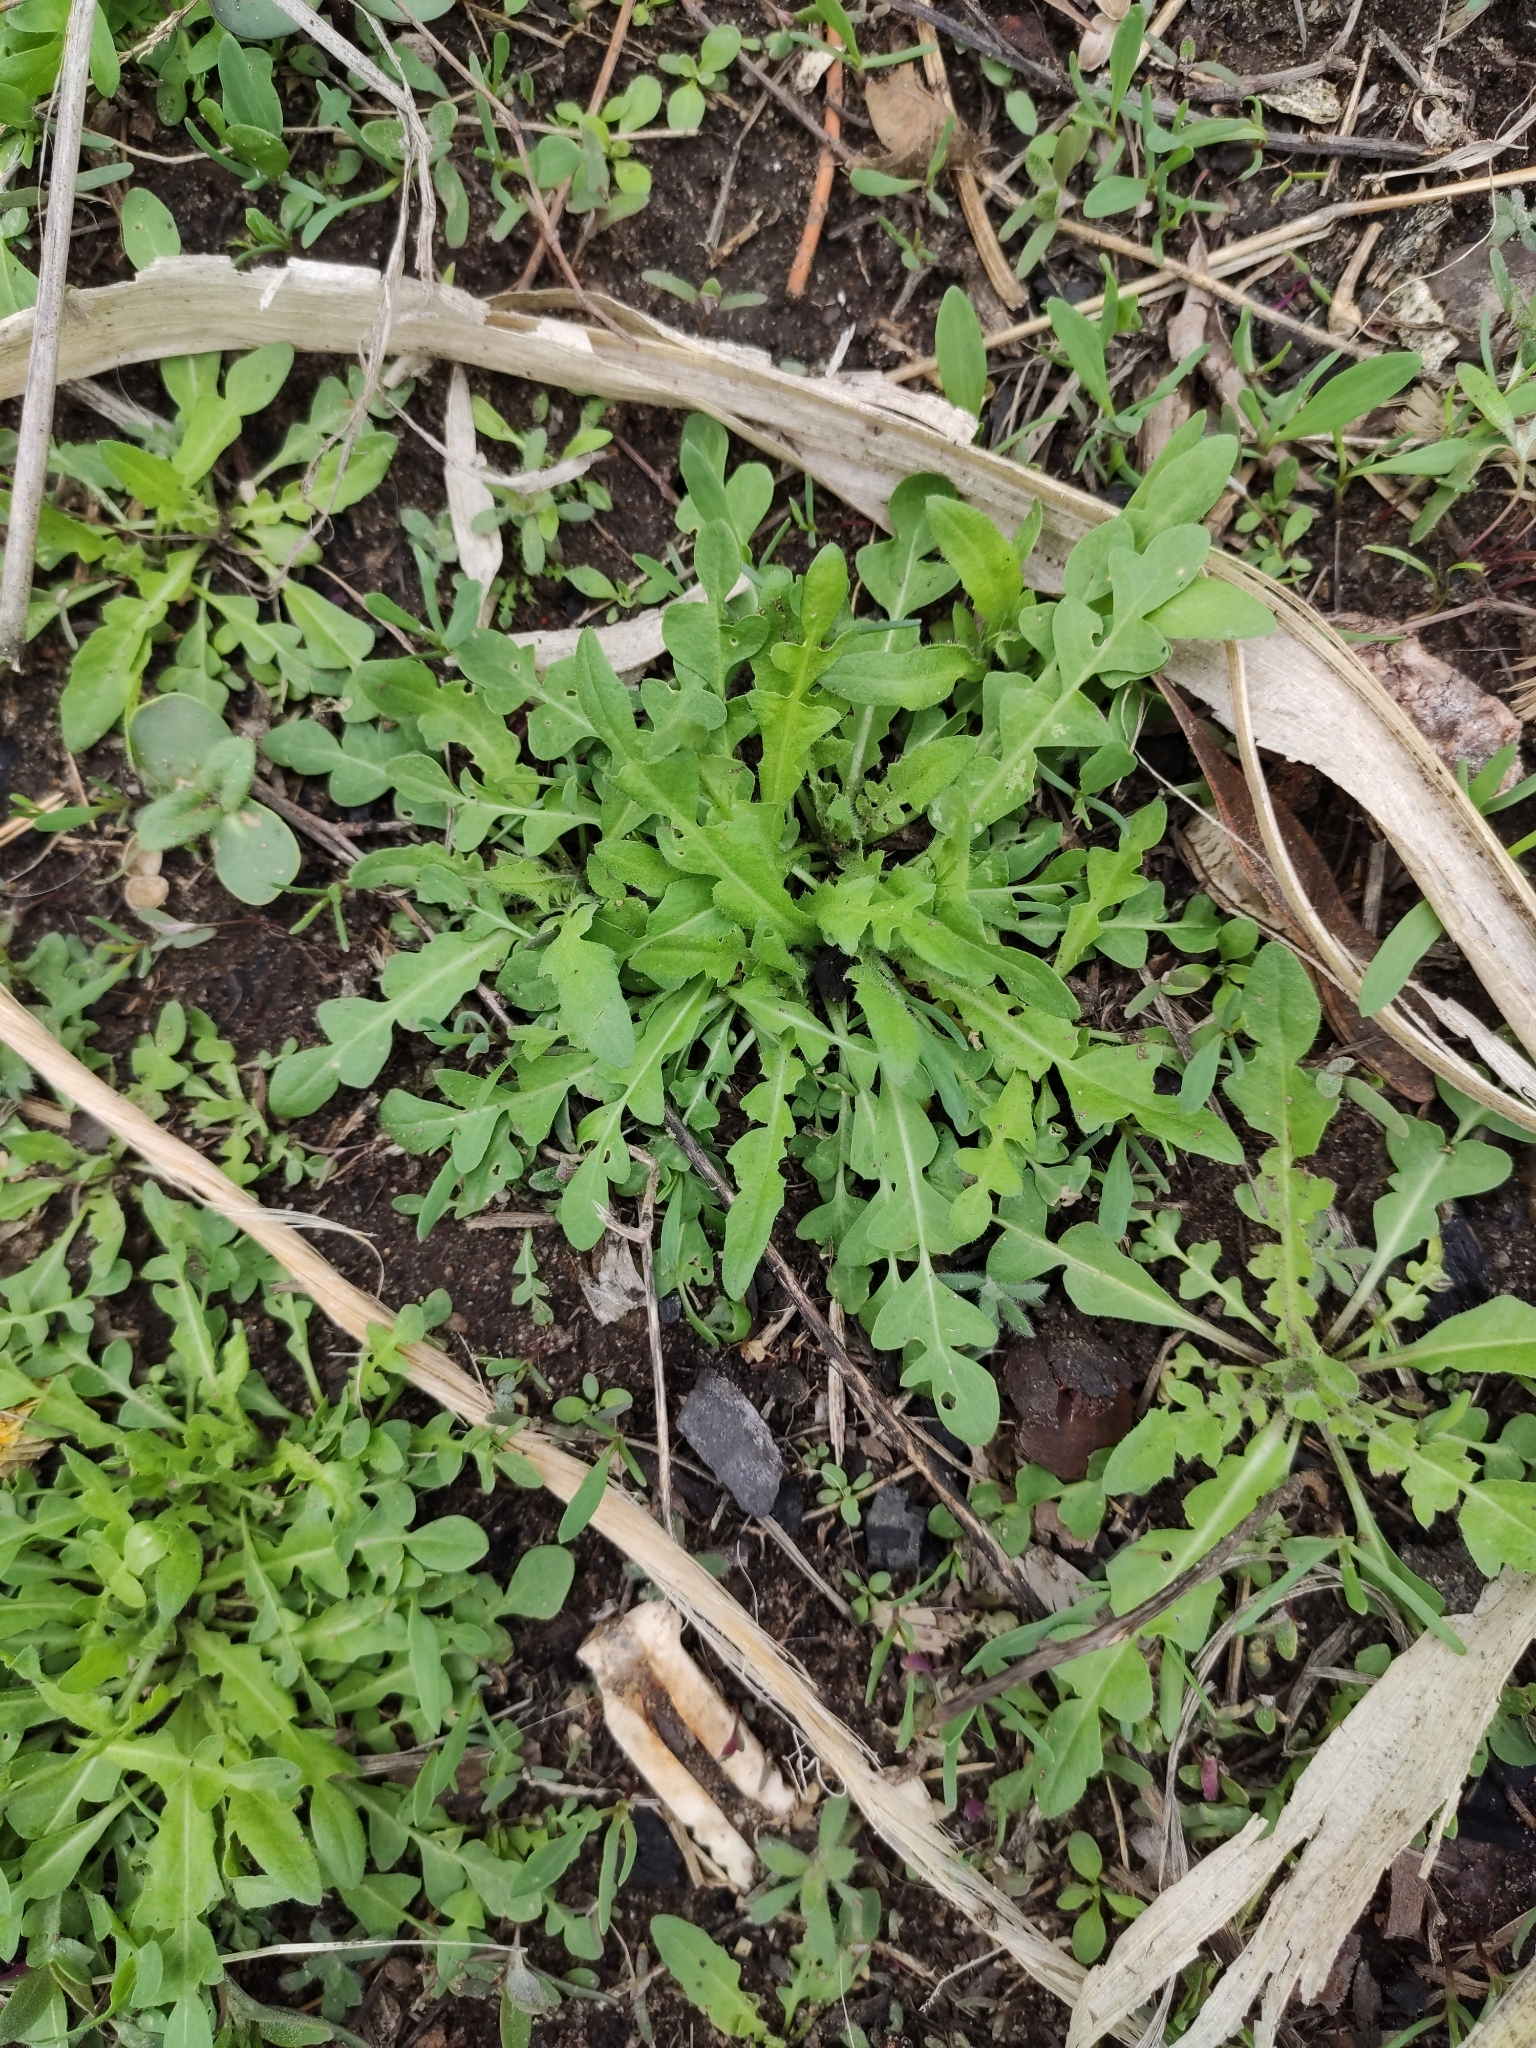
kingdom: Plantae
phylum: Tracheophyta
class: Magnoliopsida
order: Brassicales
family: Brassicaceae
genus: Capsella
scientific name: Capsella bursa-pastoris
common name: Shepherd's purse
